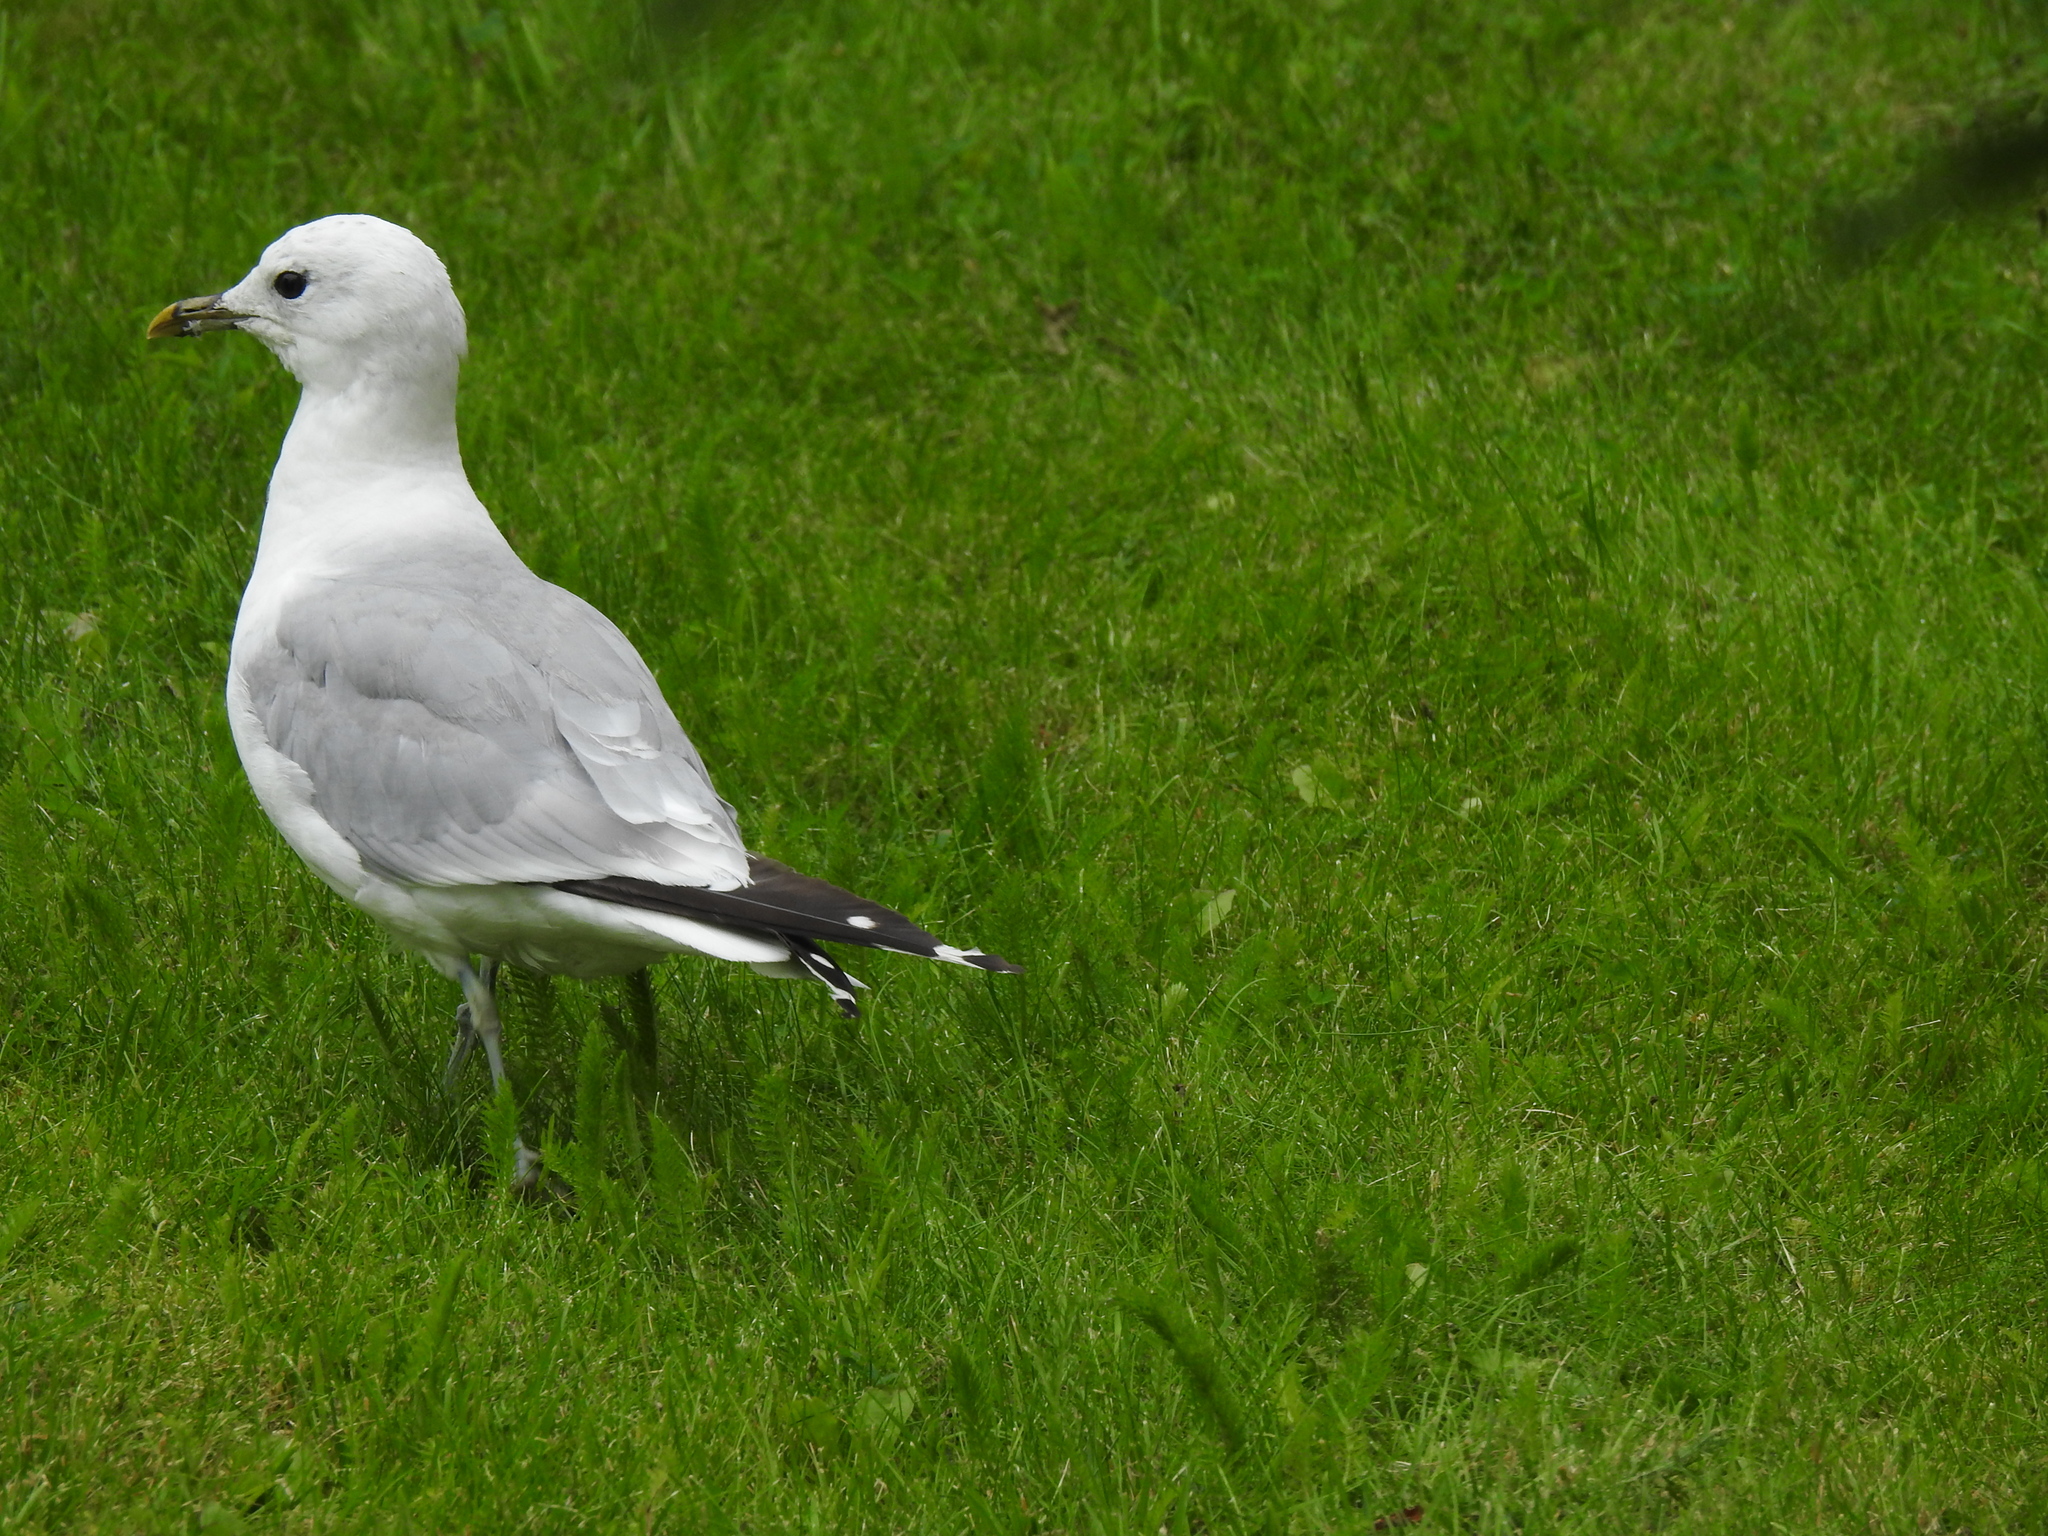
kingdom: Animalia
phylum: Chordata
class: Aves
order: Charadriiformes
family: Laridae
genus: Larus
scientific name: Larus canus
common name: Mew gull
